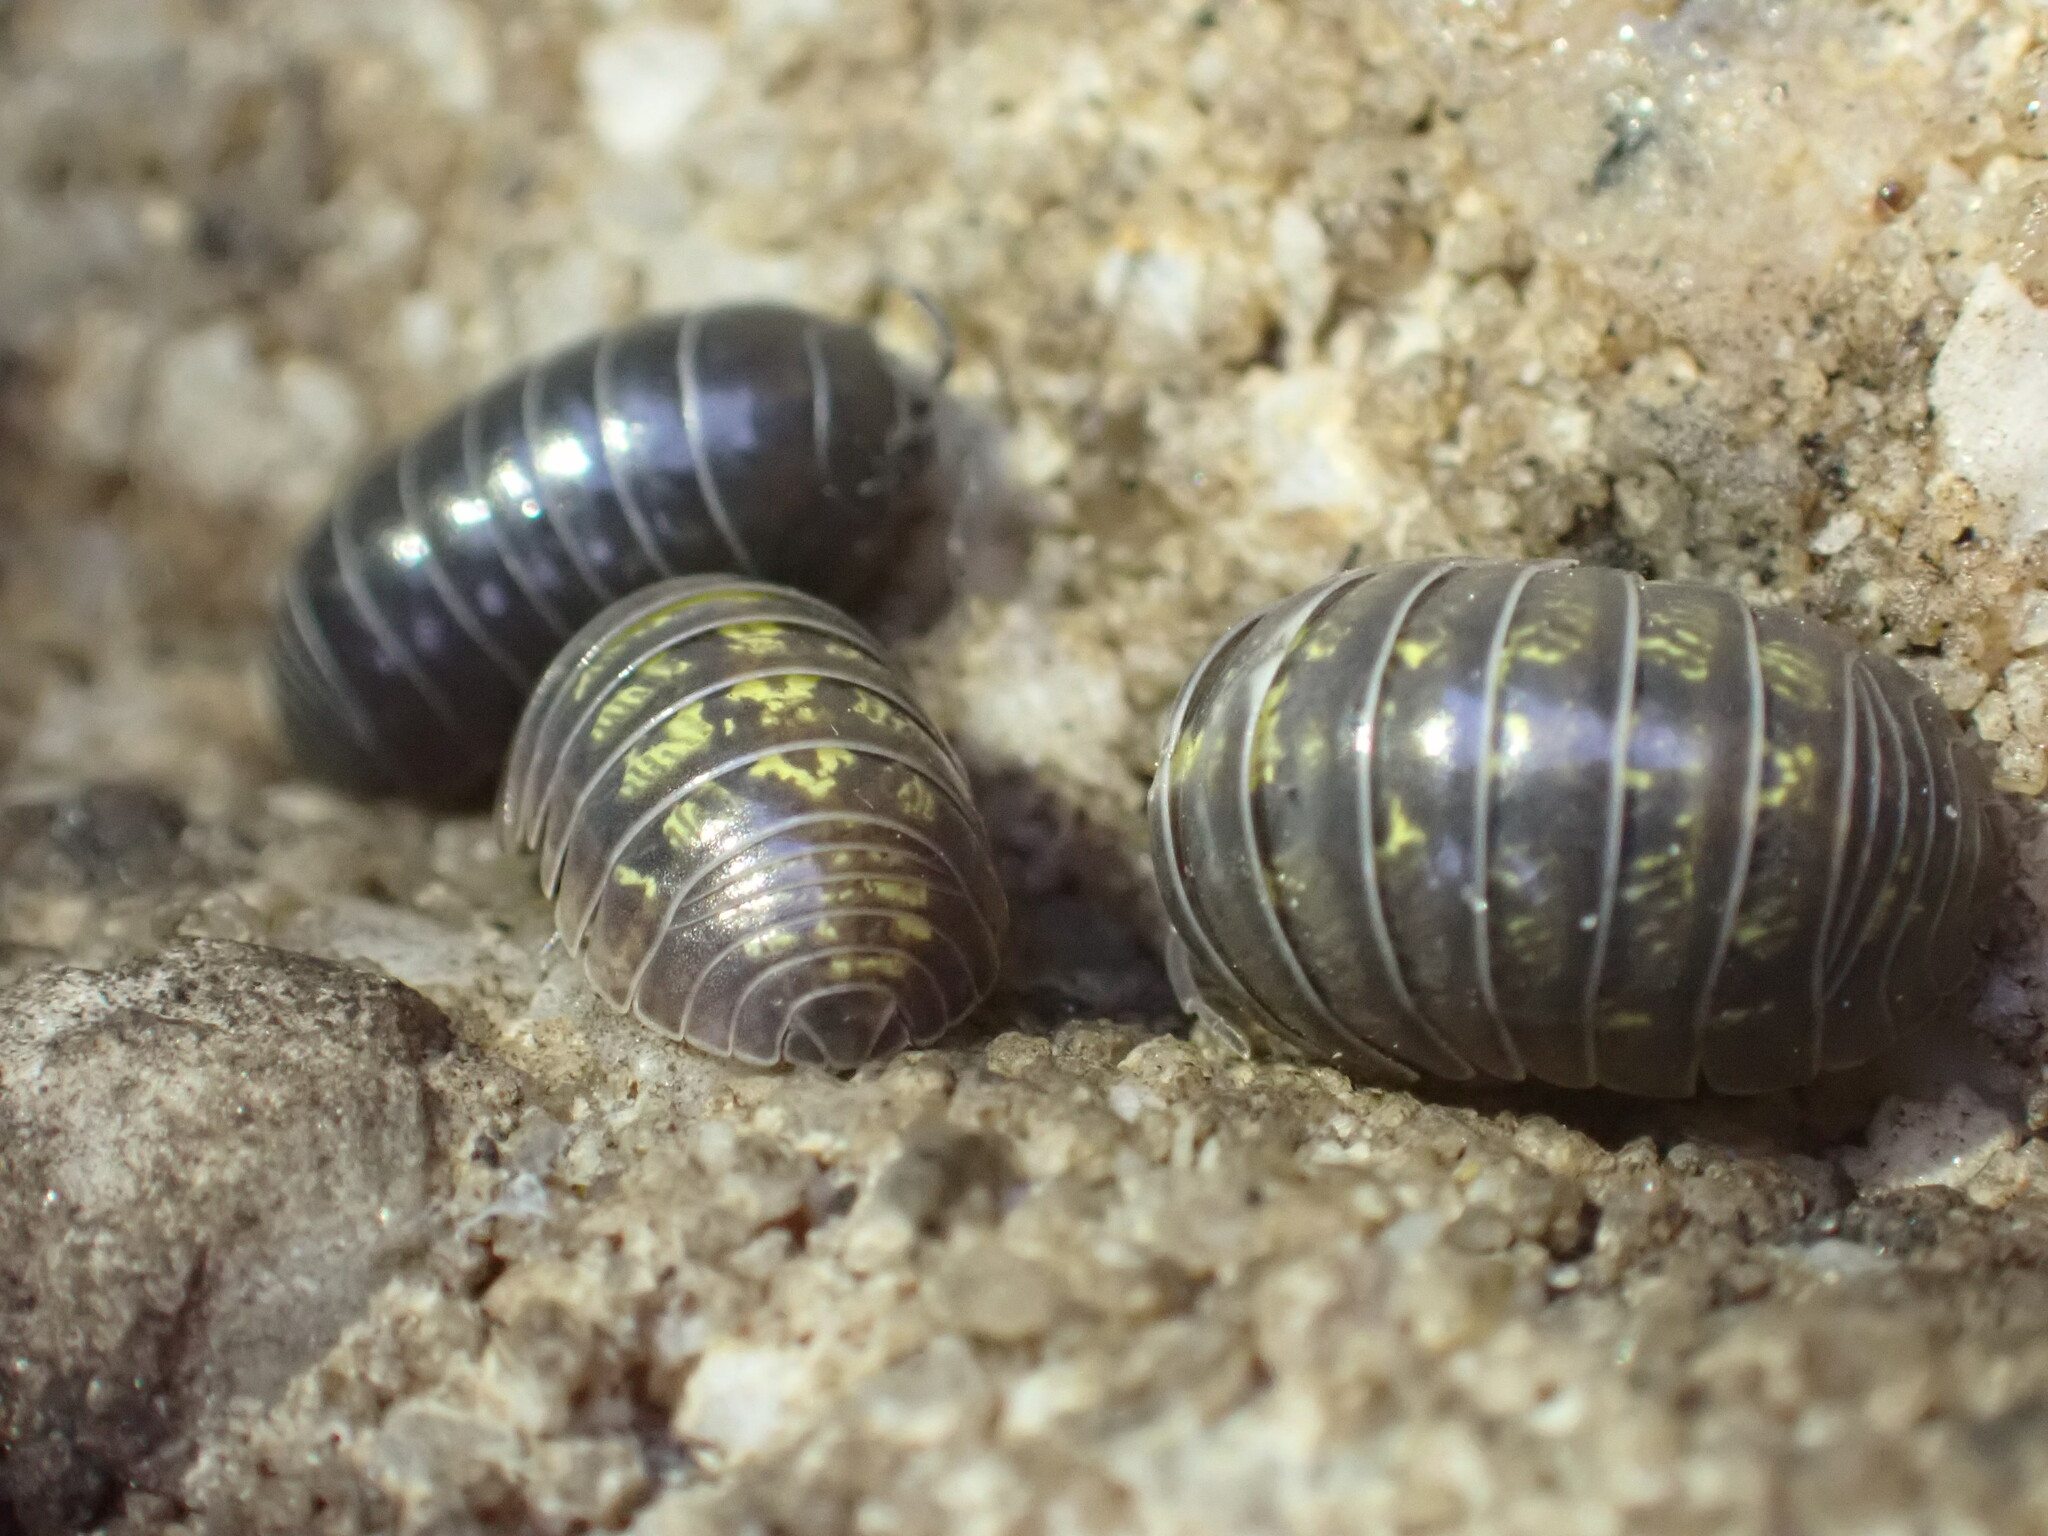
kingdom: Animalia
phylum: Arthropoda
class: Malacostraca
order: Isopoda
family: Armadillidiidae
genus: Armadillidium
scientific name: Armadillidium vulgare
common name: Common pill woodlouse
